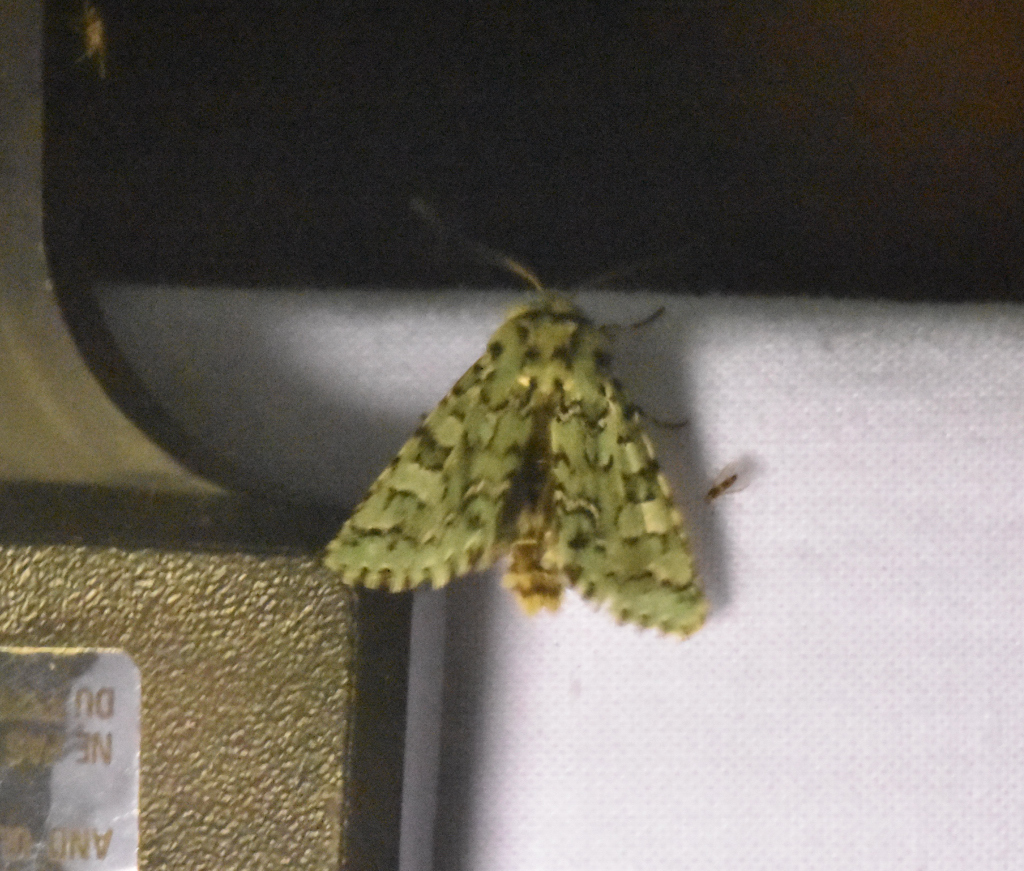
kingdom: Animalia
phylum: Arthropoda
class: Insecta
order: Lepidoptera
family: Noctuidae
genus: Feralia
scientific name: Feralia jocosa
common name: Joker
